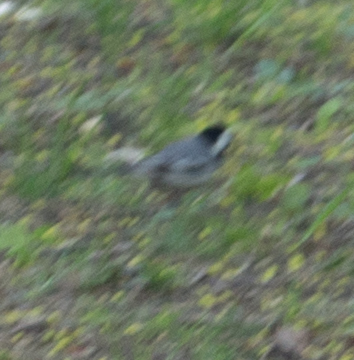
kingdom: Animalia
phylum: Chordata
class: Aves
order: Passeriformes
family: Motacillidae
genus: Motacilla
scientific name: Motacilla alba
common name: White wagtail
